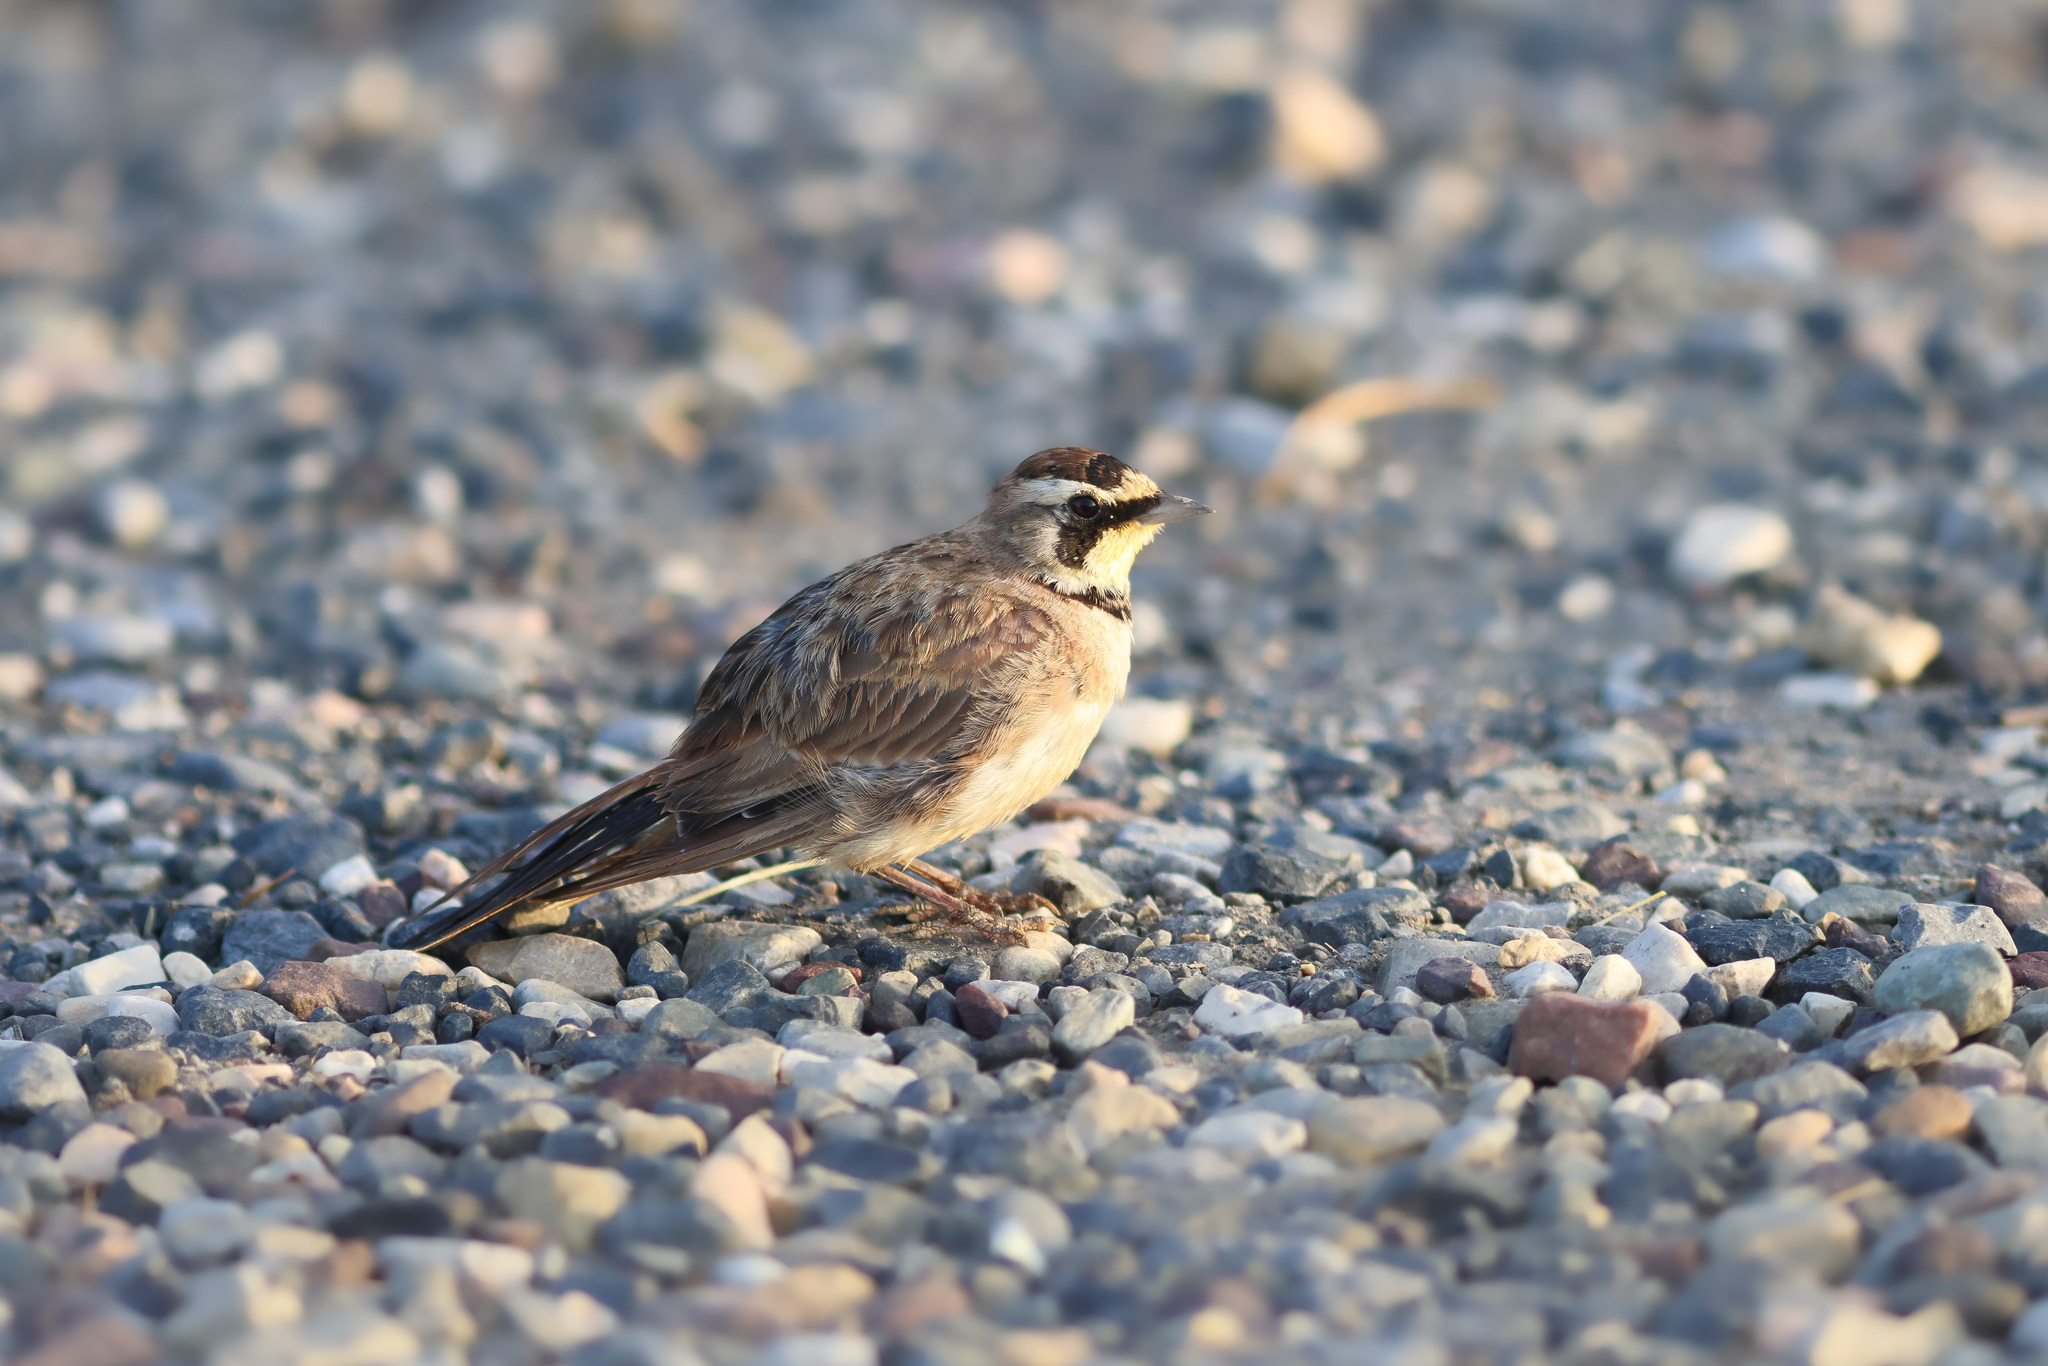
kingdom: Animalia
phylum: Chordata
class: Aves
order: Passeriformes
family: Alaudidae
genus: Eremophila
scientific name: Eremophila alpestris
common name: Horned lark
